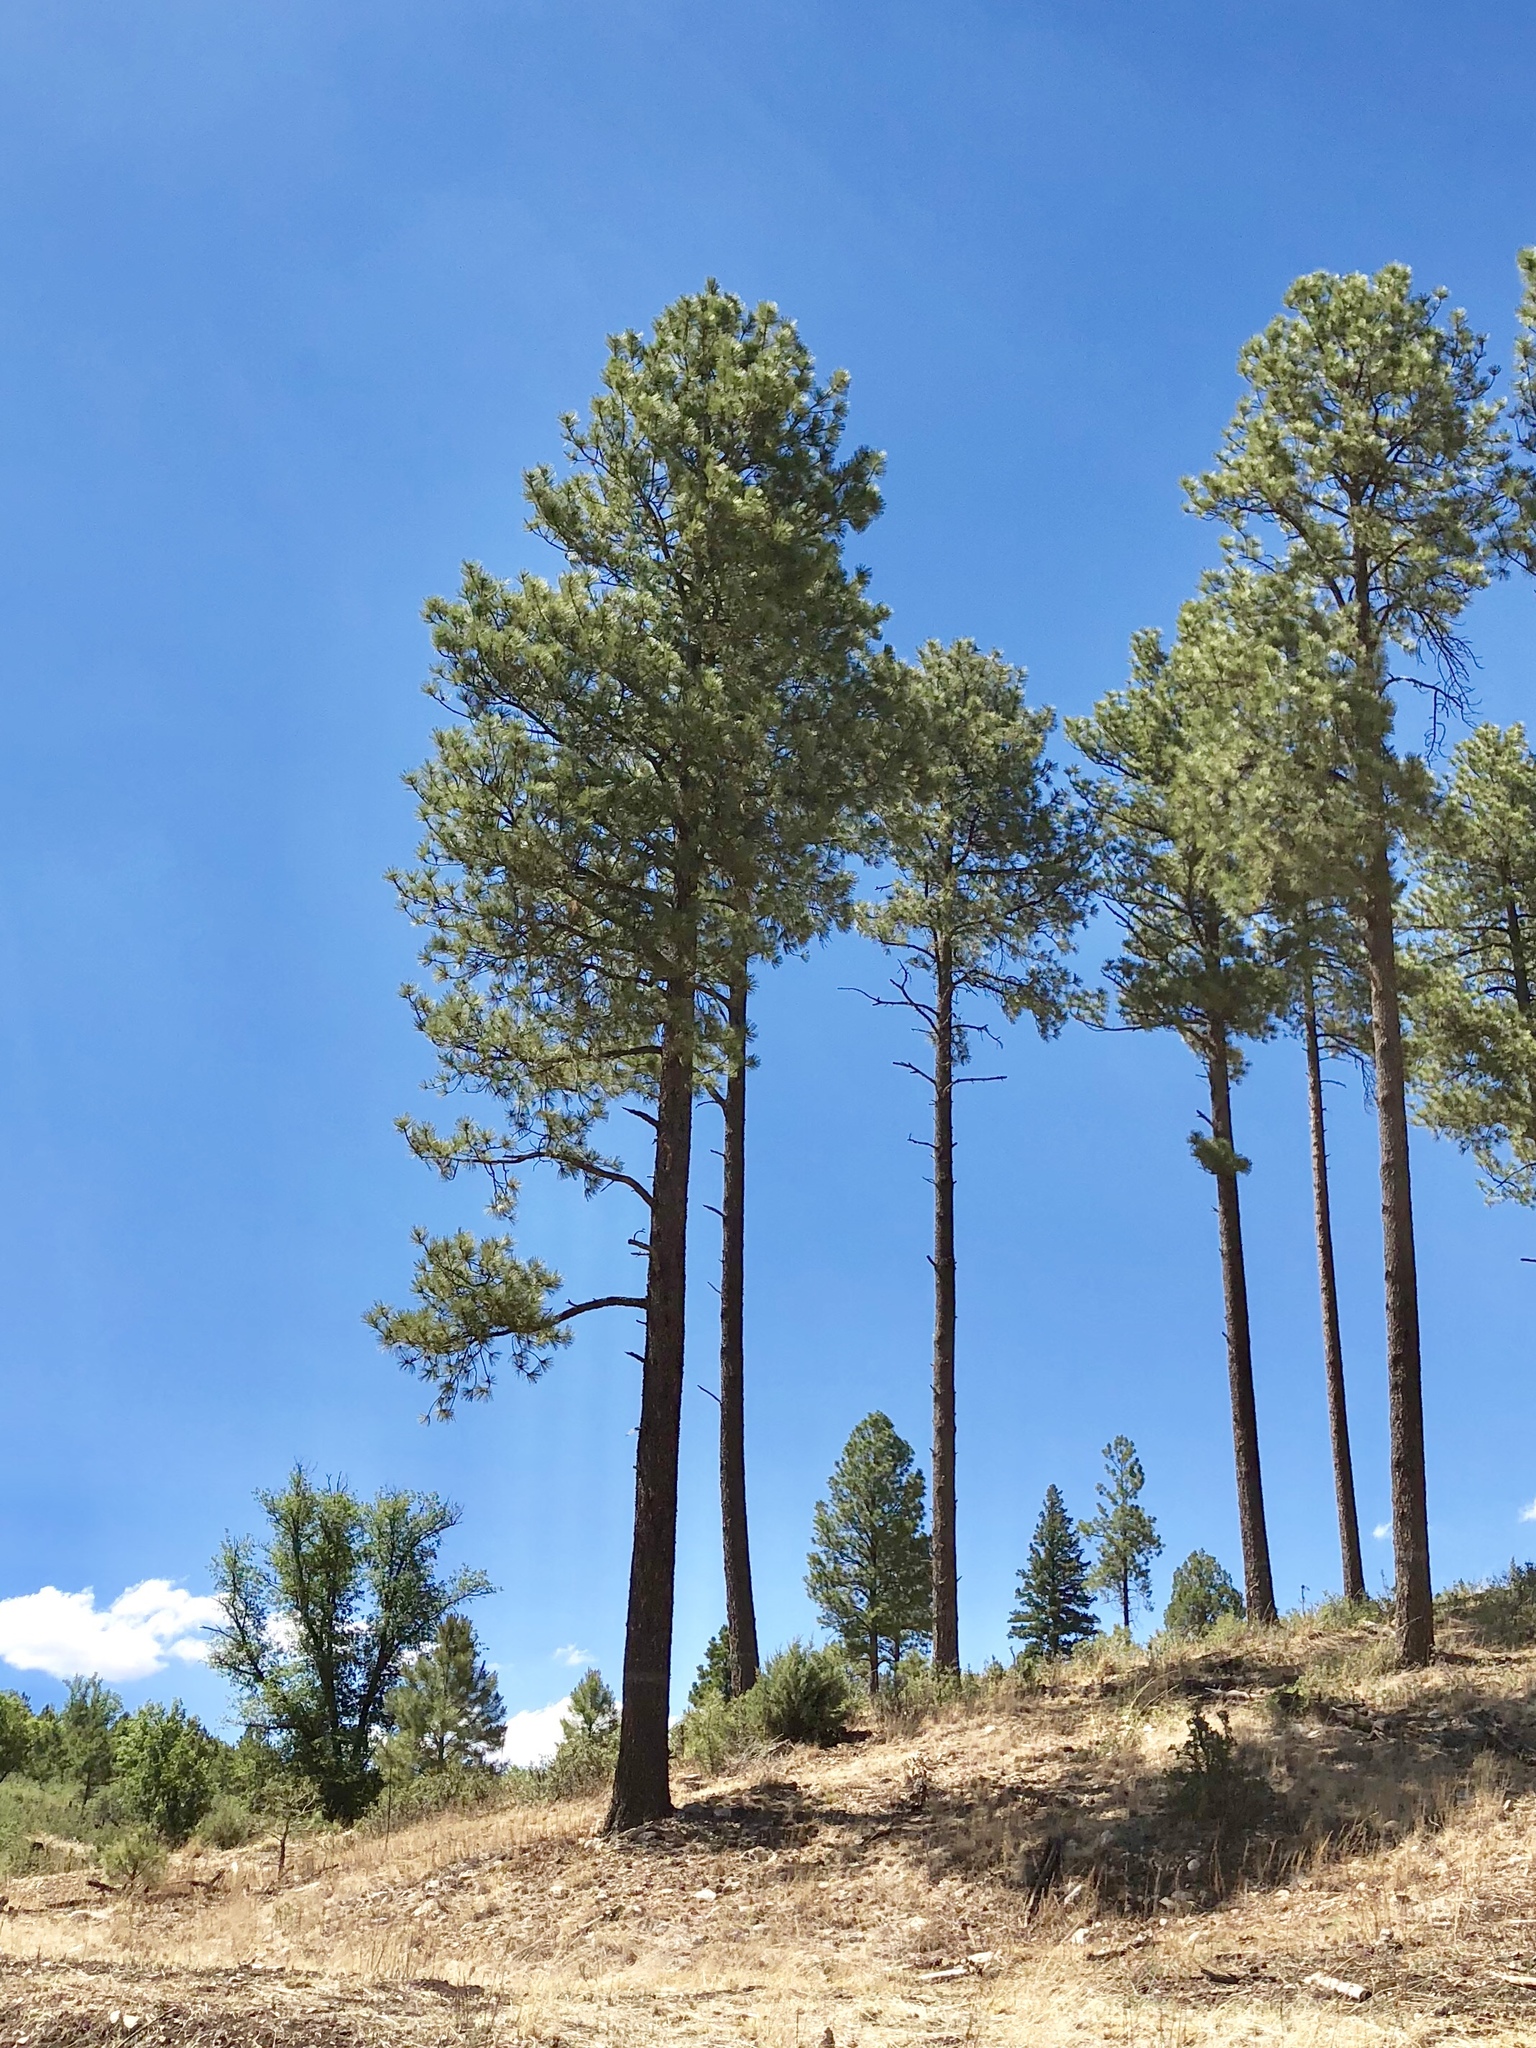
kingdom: Plantae
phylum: Tracheophyta
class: Pinopsida
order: Pinales
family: Pinaceae
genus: Pinus
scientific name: Pinus ponderosa
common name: Western yellow-pine
